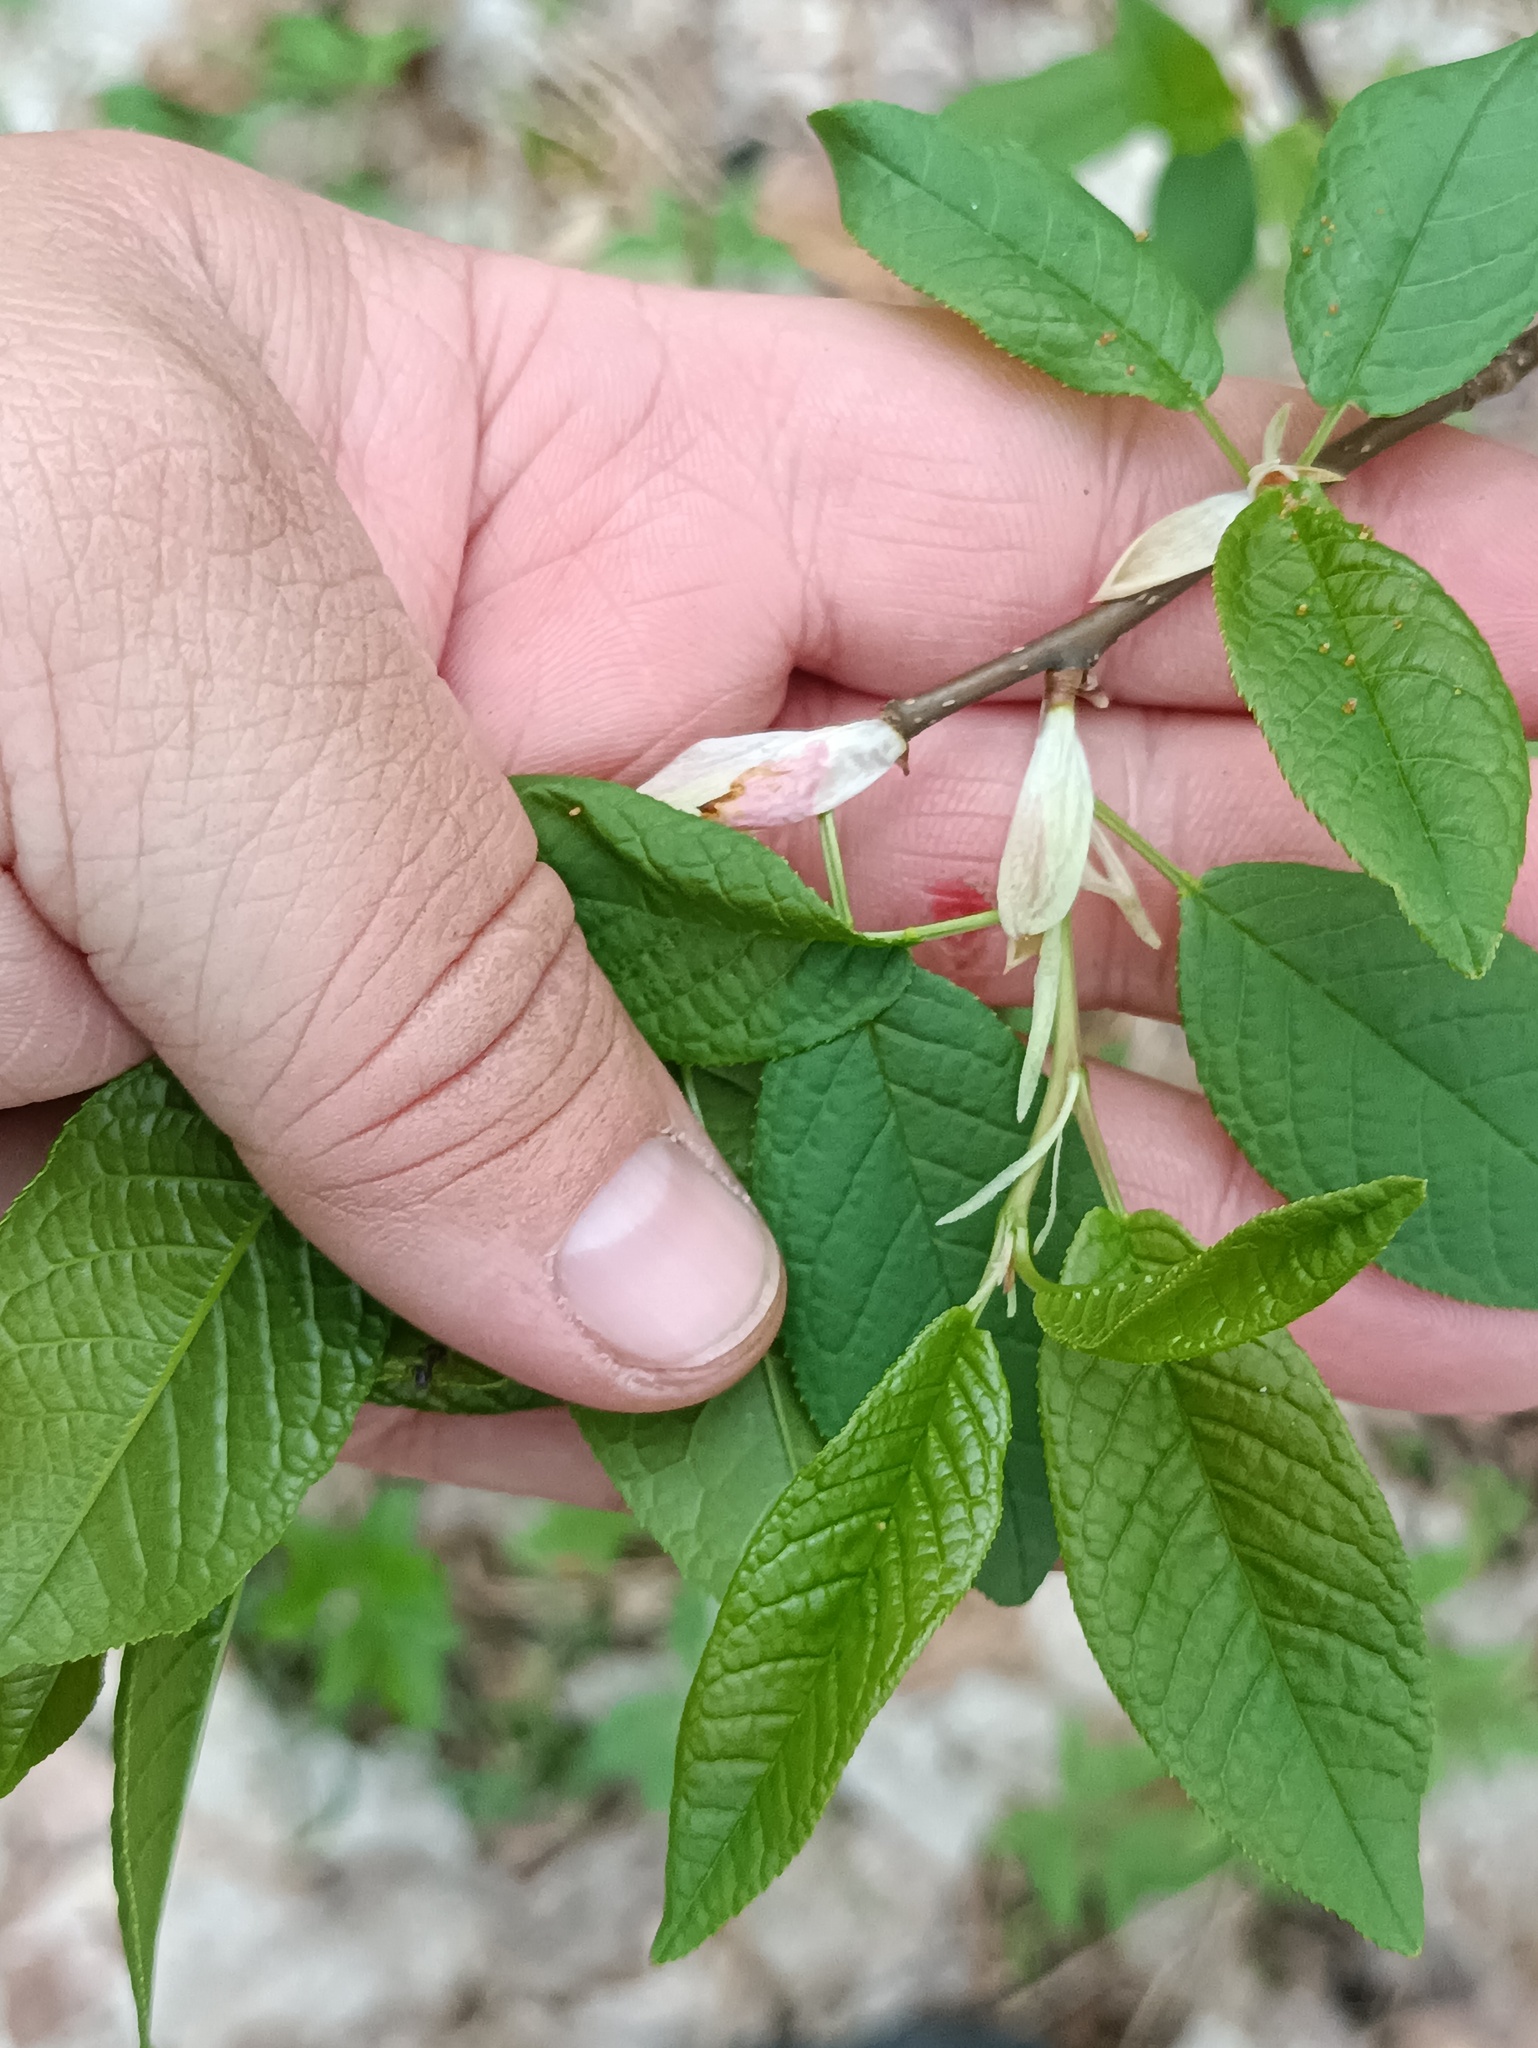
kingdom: Plantae
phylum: Tracheophyta
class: Magnoliopsida
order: Rosales
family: Rosaceae
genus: Prunus
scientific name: Prunus padus
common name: Bird cherry
